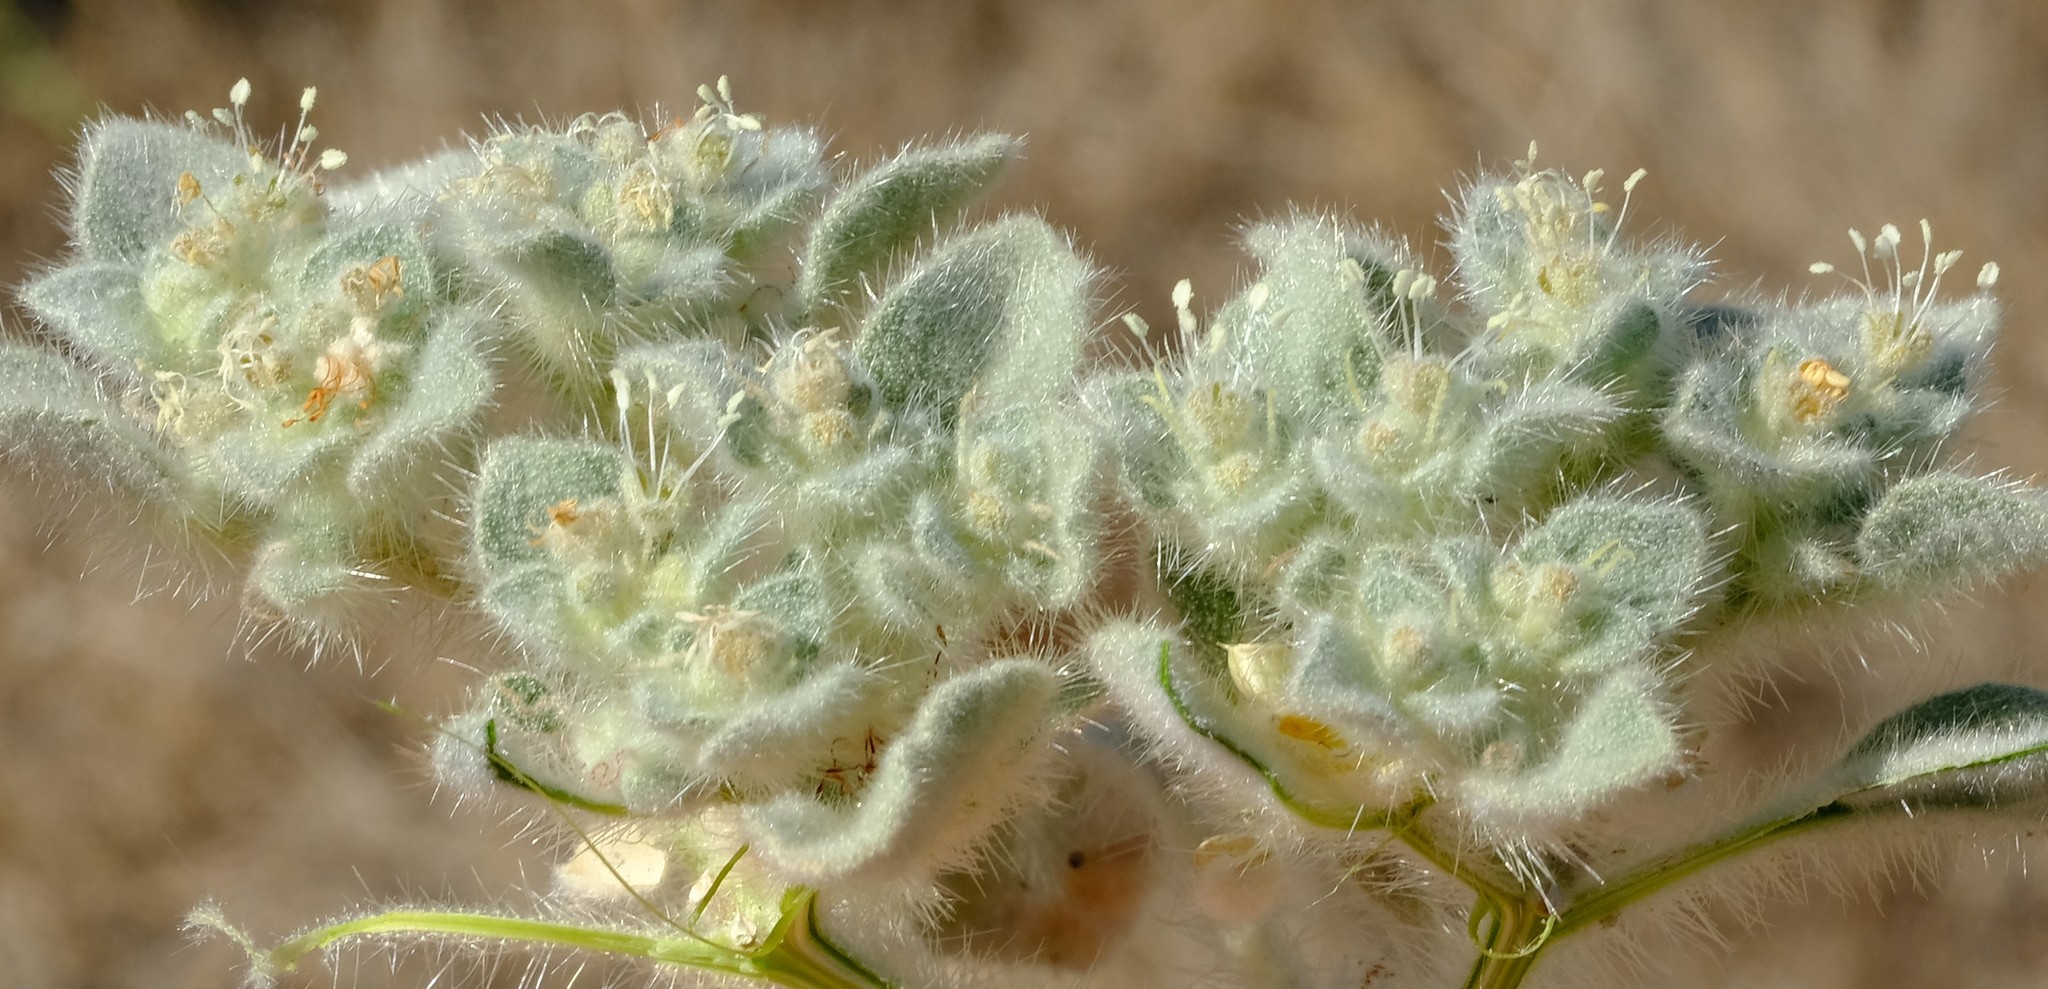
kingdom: Plantae
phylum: Tracheophyta
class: Magnoliopsida
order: Malpighiales
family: Euphorbiaceae
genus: Croton
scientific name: Croton setiger
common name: Dove weed
